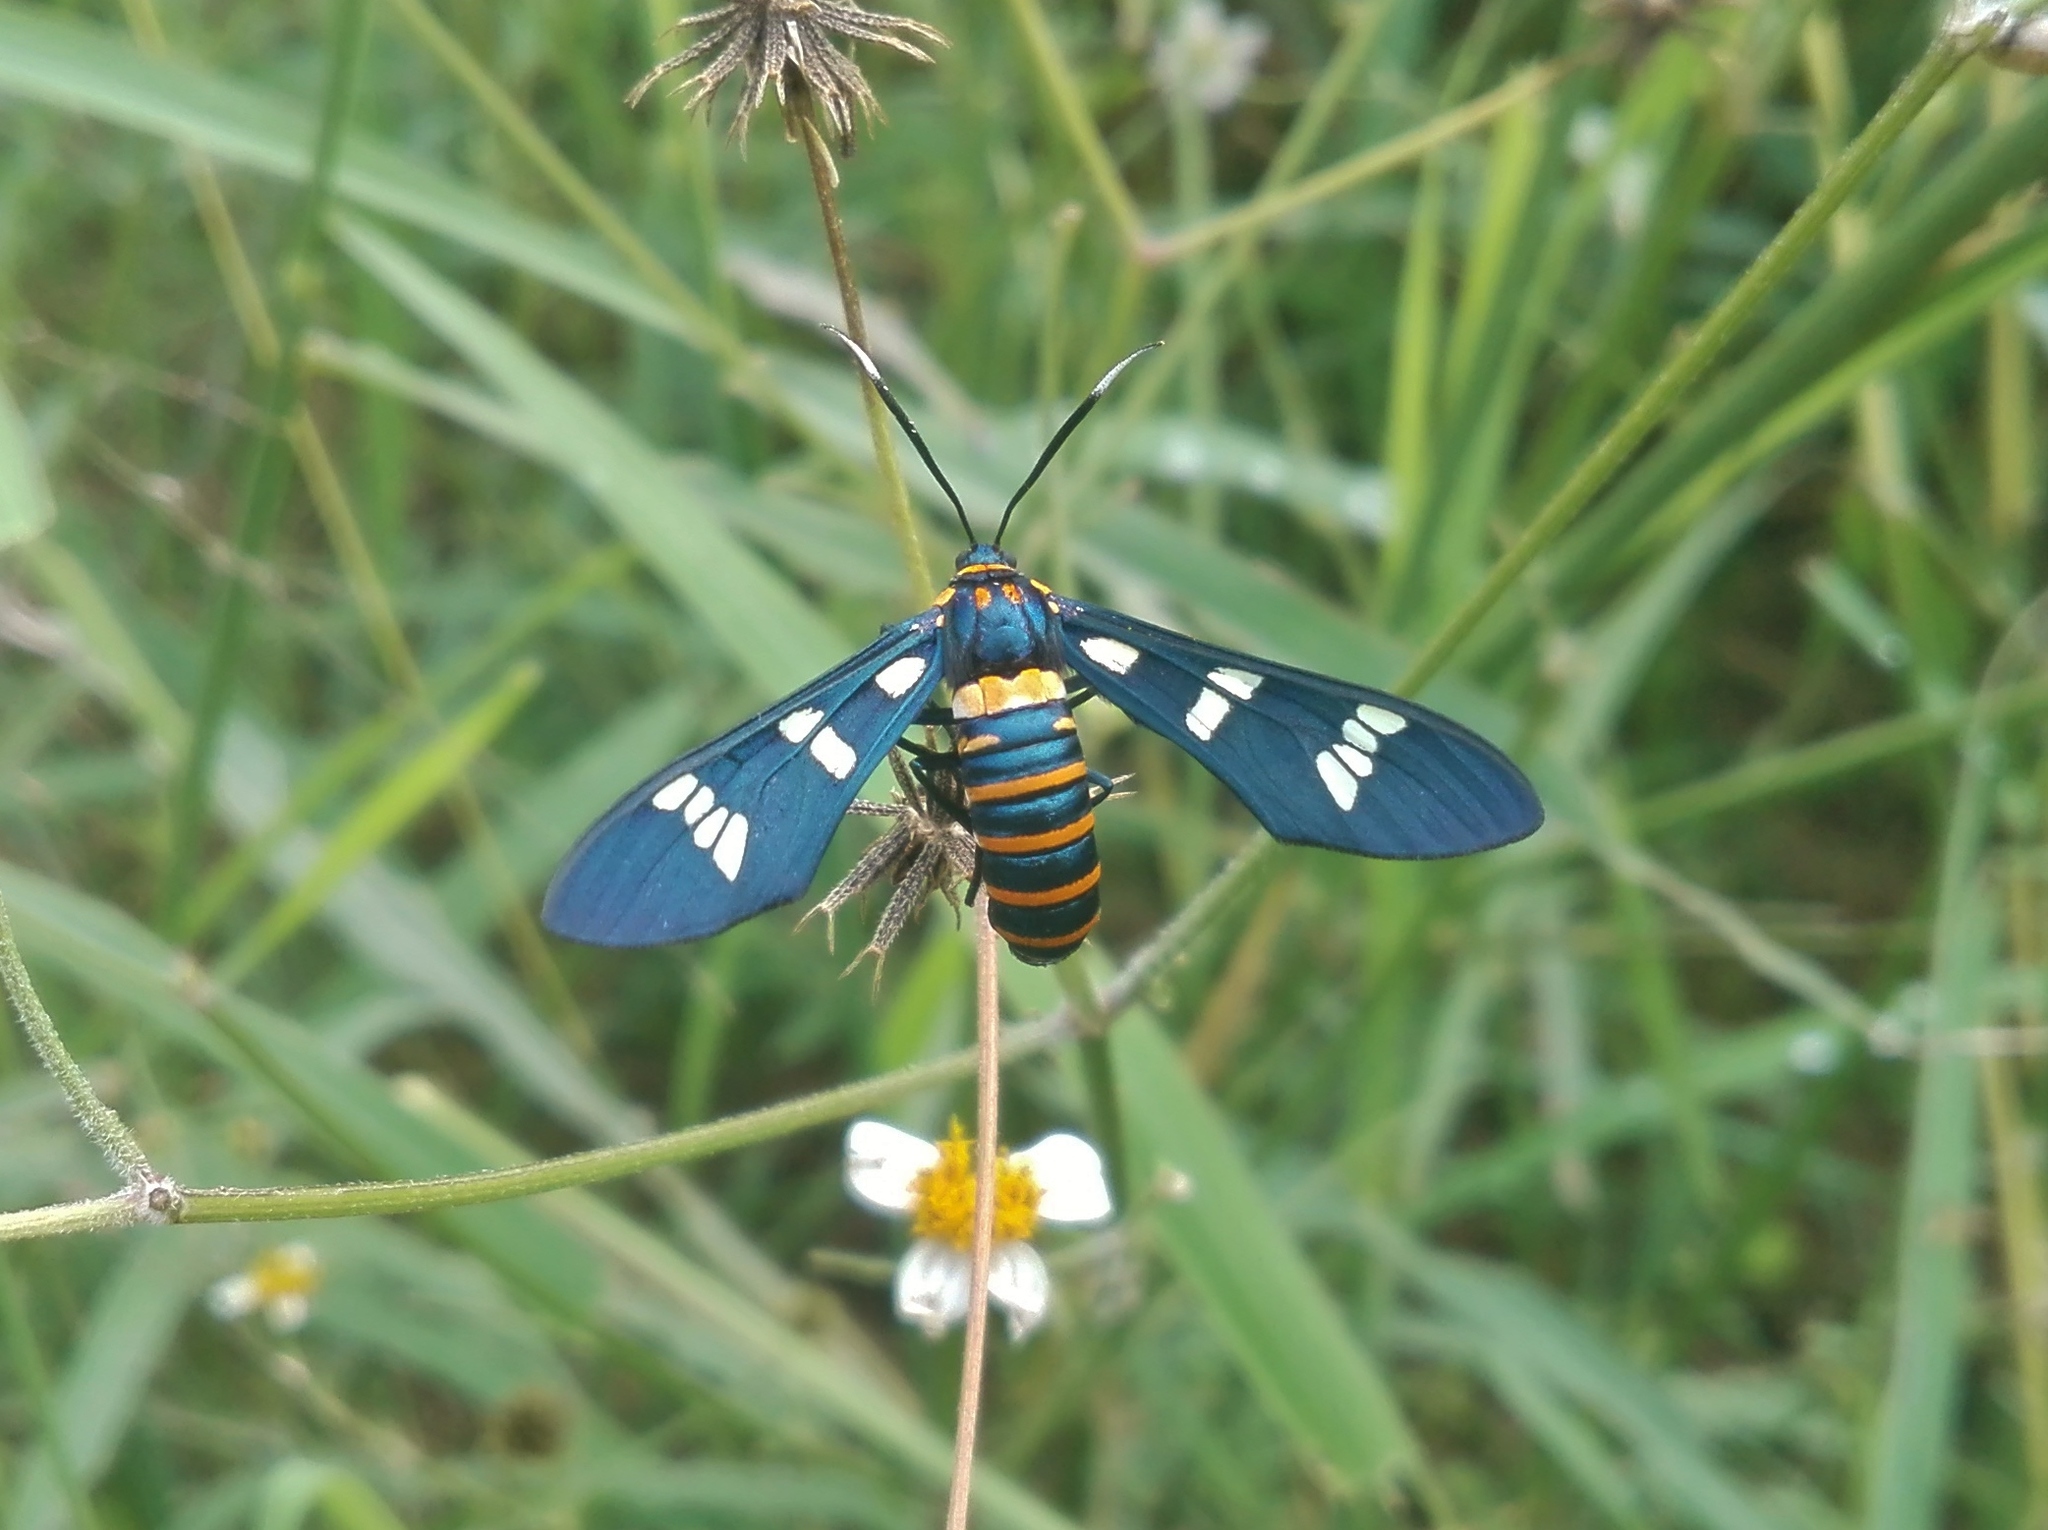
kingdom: Animalia
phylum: Arthropoda
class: Insecta
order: Lepidoptera
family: Erebidae
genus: Syntomeida
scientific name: Syntomeida melanthus
